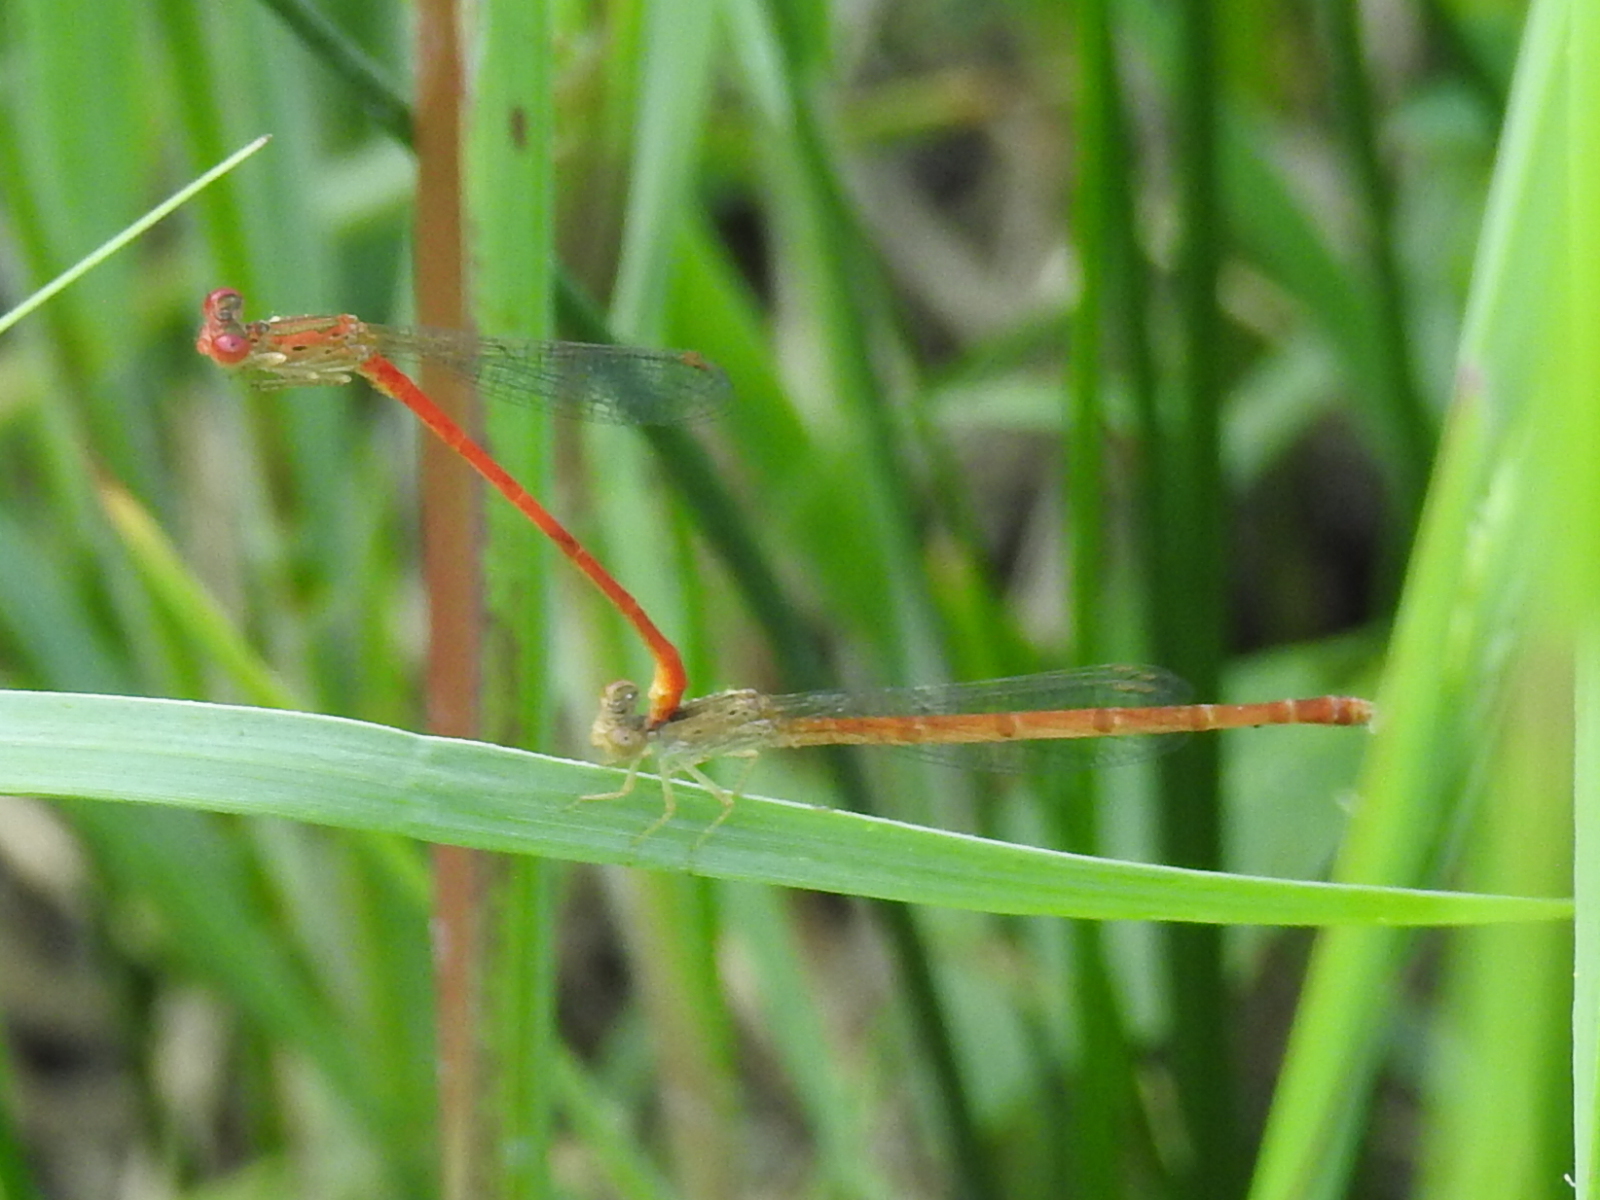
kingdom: Animalia
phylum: Arthropoda
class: Insecta
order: Odonata
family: Coenagrionidae
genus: Telebasis
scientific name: Telebasis salva
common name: Desert firetail
